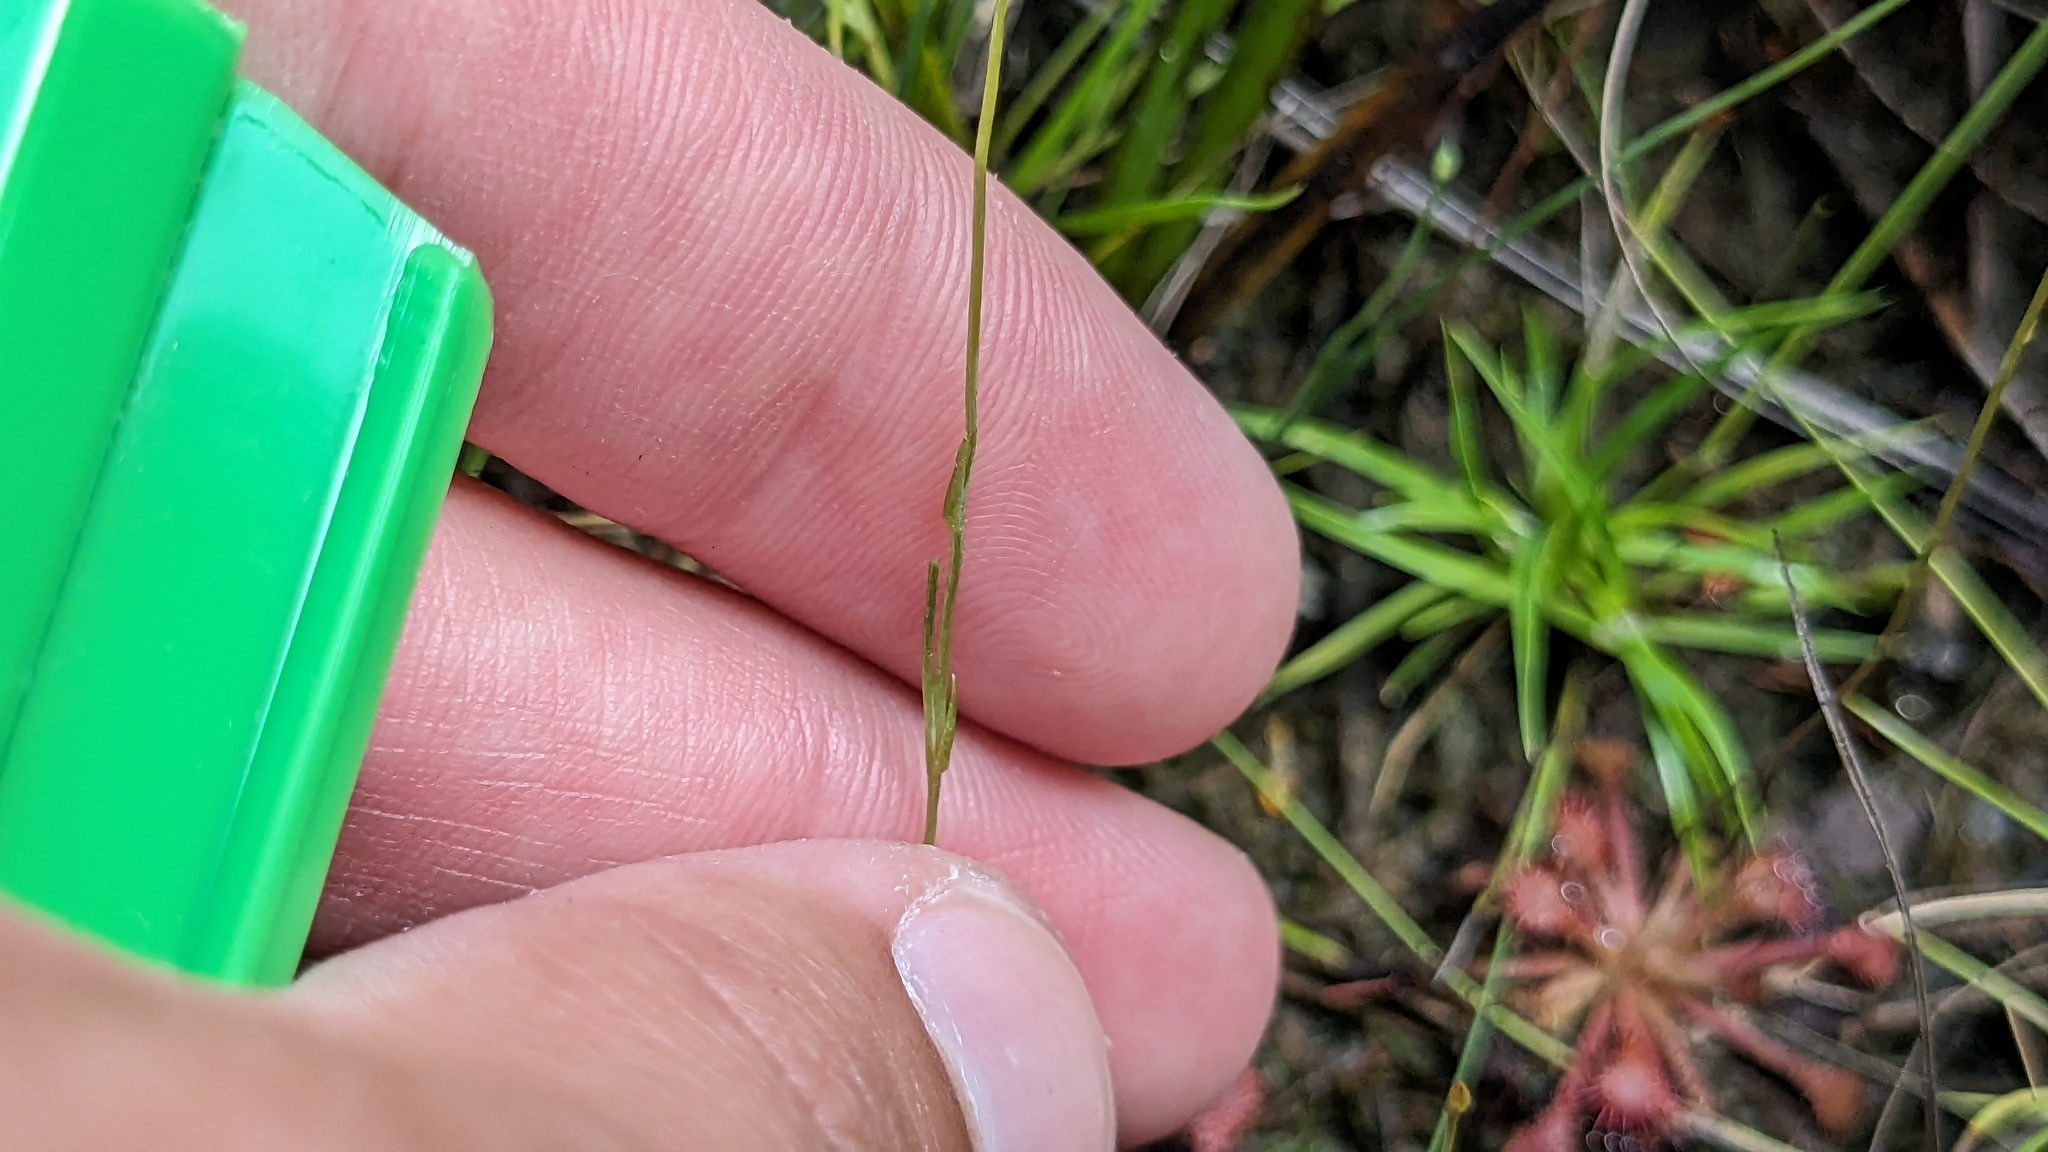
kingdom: Plantae
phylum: Tracheophyta
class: Liliopsida
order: Dioscoreales
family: Burmanniaceae
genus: Burmannia
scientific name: Burmannia capitata
